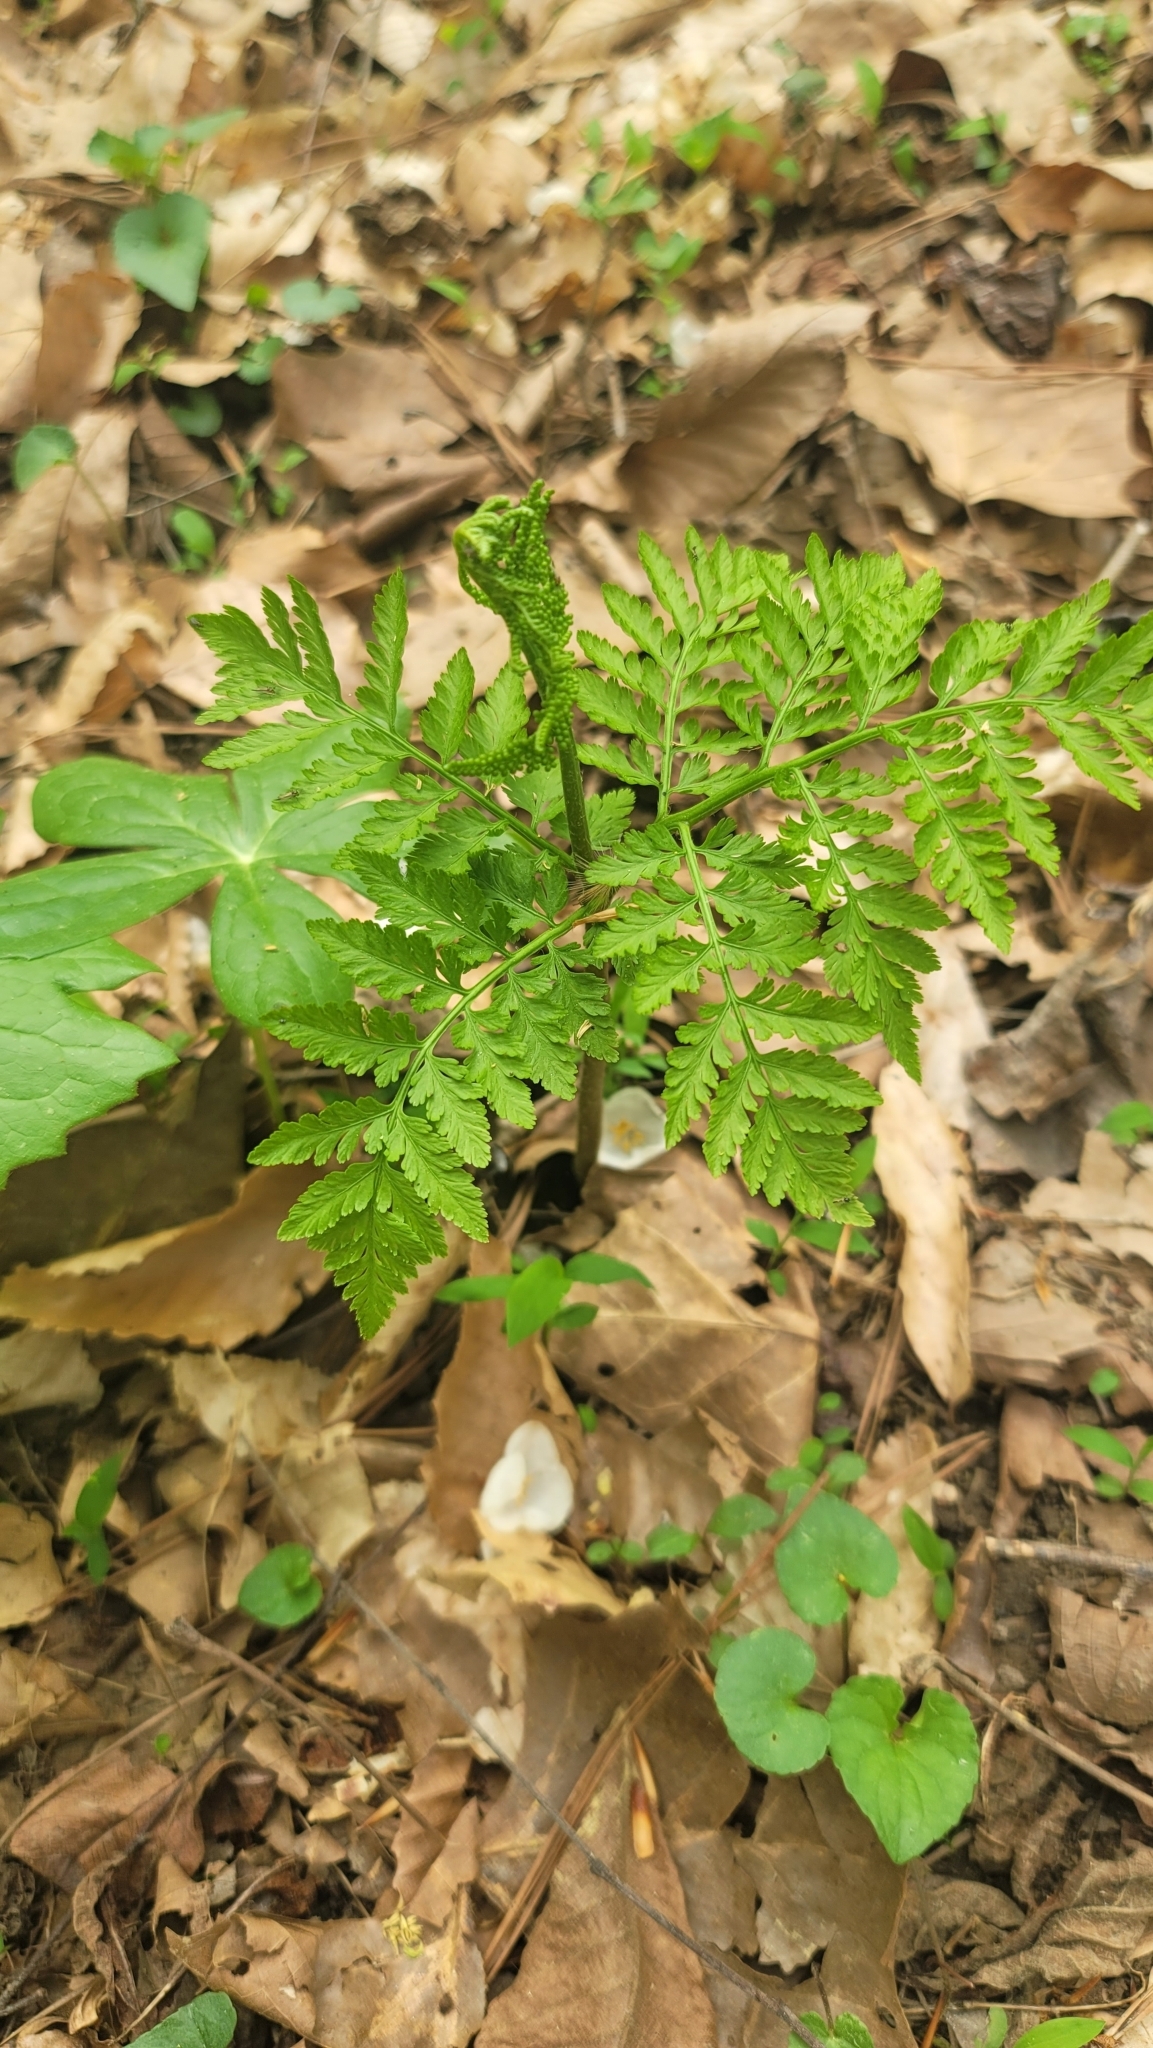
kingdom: Plantae
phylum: Tracheophyta
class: Polypodiopsida
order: Ophioglossales
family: Ophioglossaceae
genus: Botrypus
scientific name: Botrypus virginianus
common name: Common grapefern
